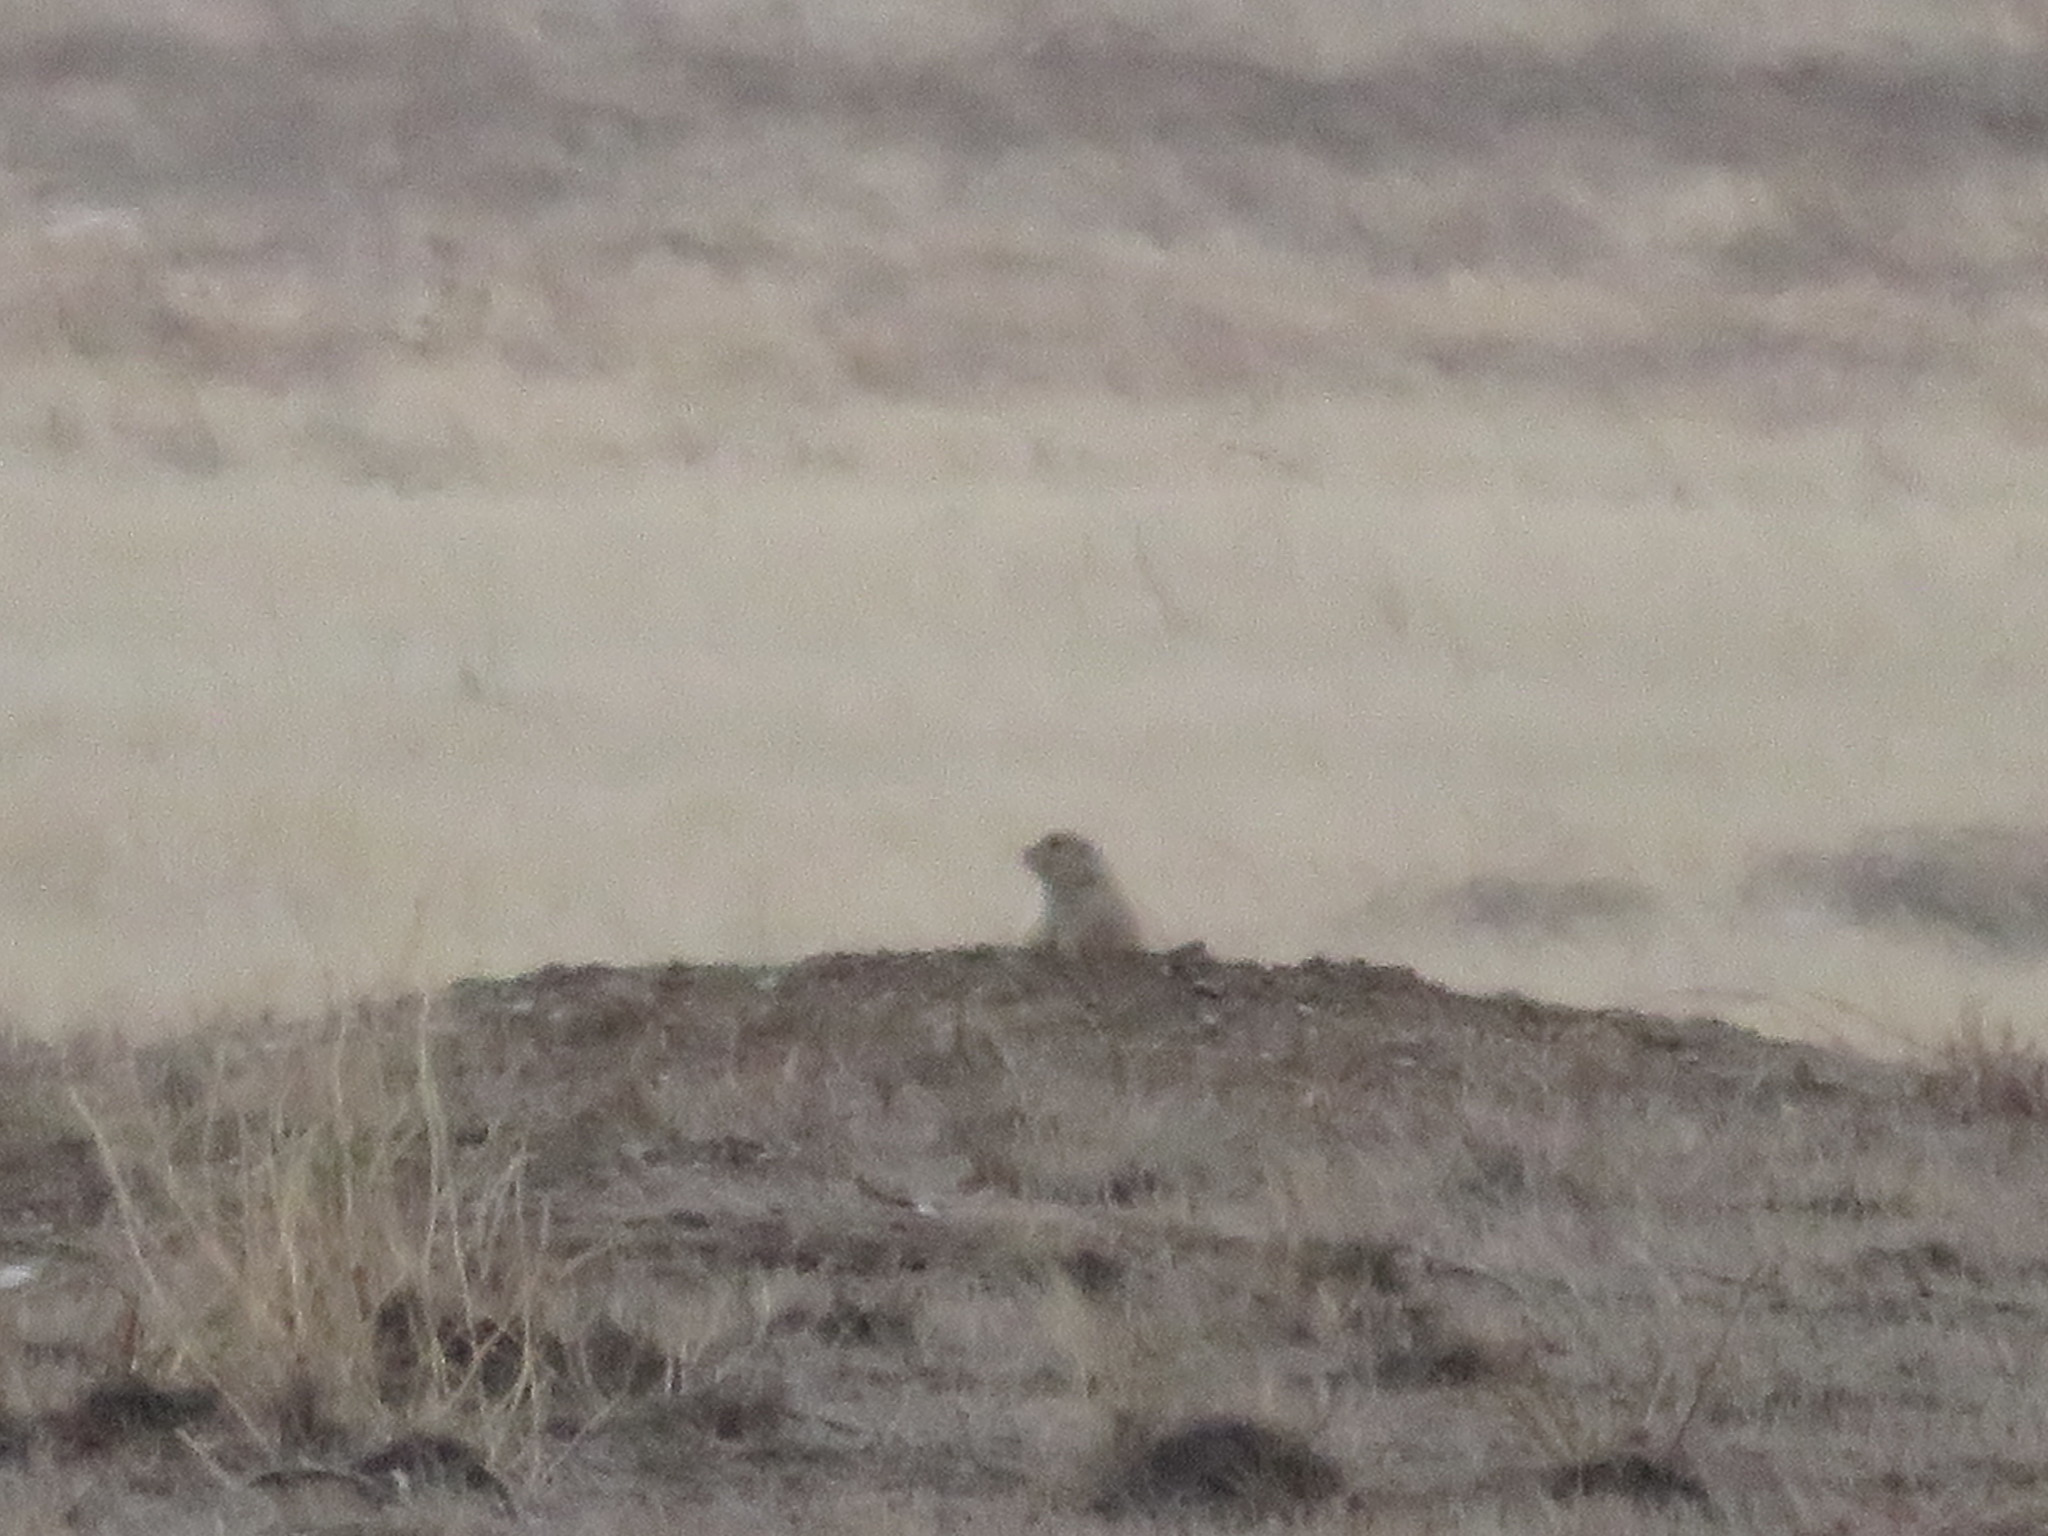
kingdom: Animalia
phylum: Chordata
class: Mammalia
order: Rodentia
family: Sciuridae
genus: Cynomys
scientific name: Cynomys ludovicianus
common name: Black-tailed prairie dog
